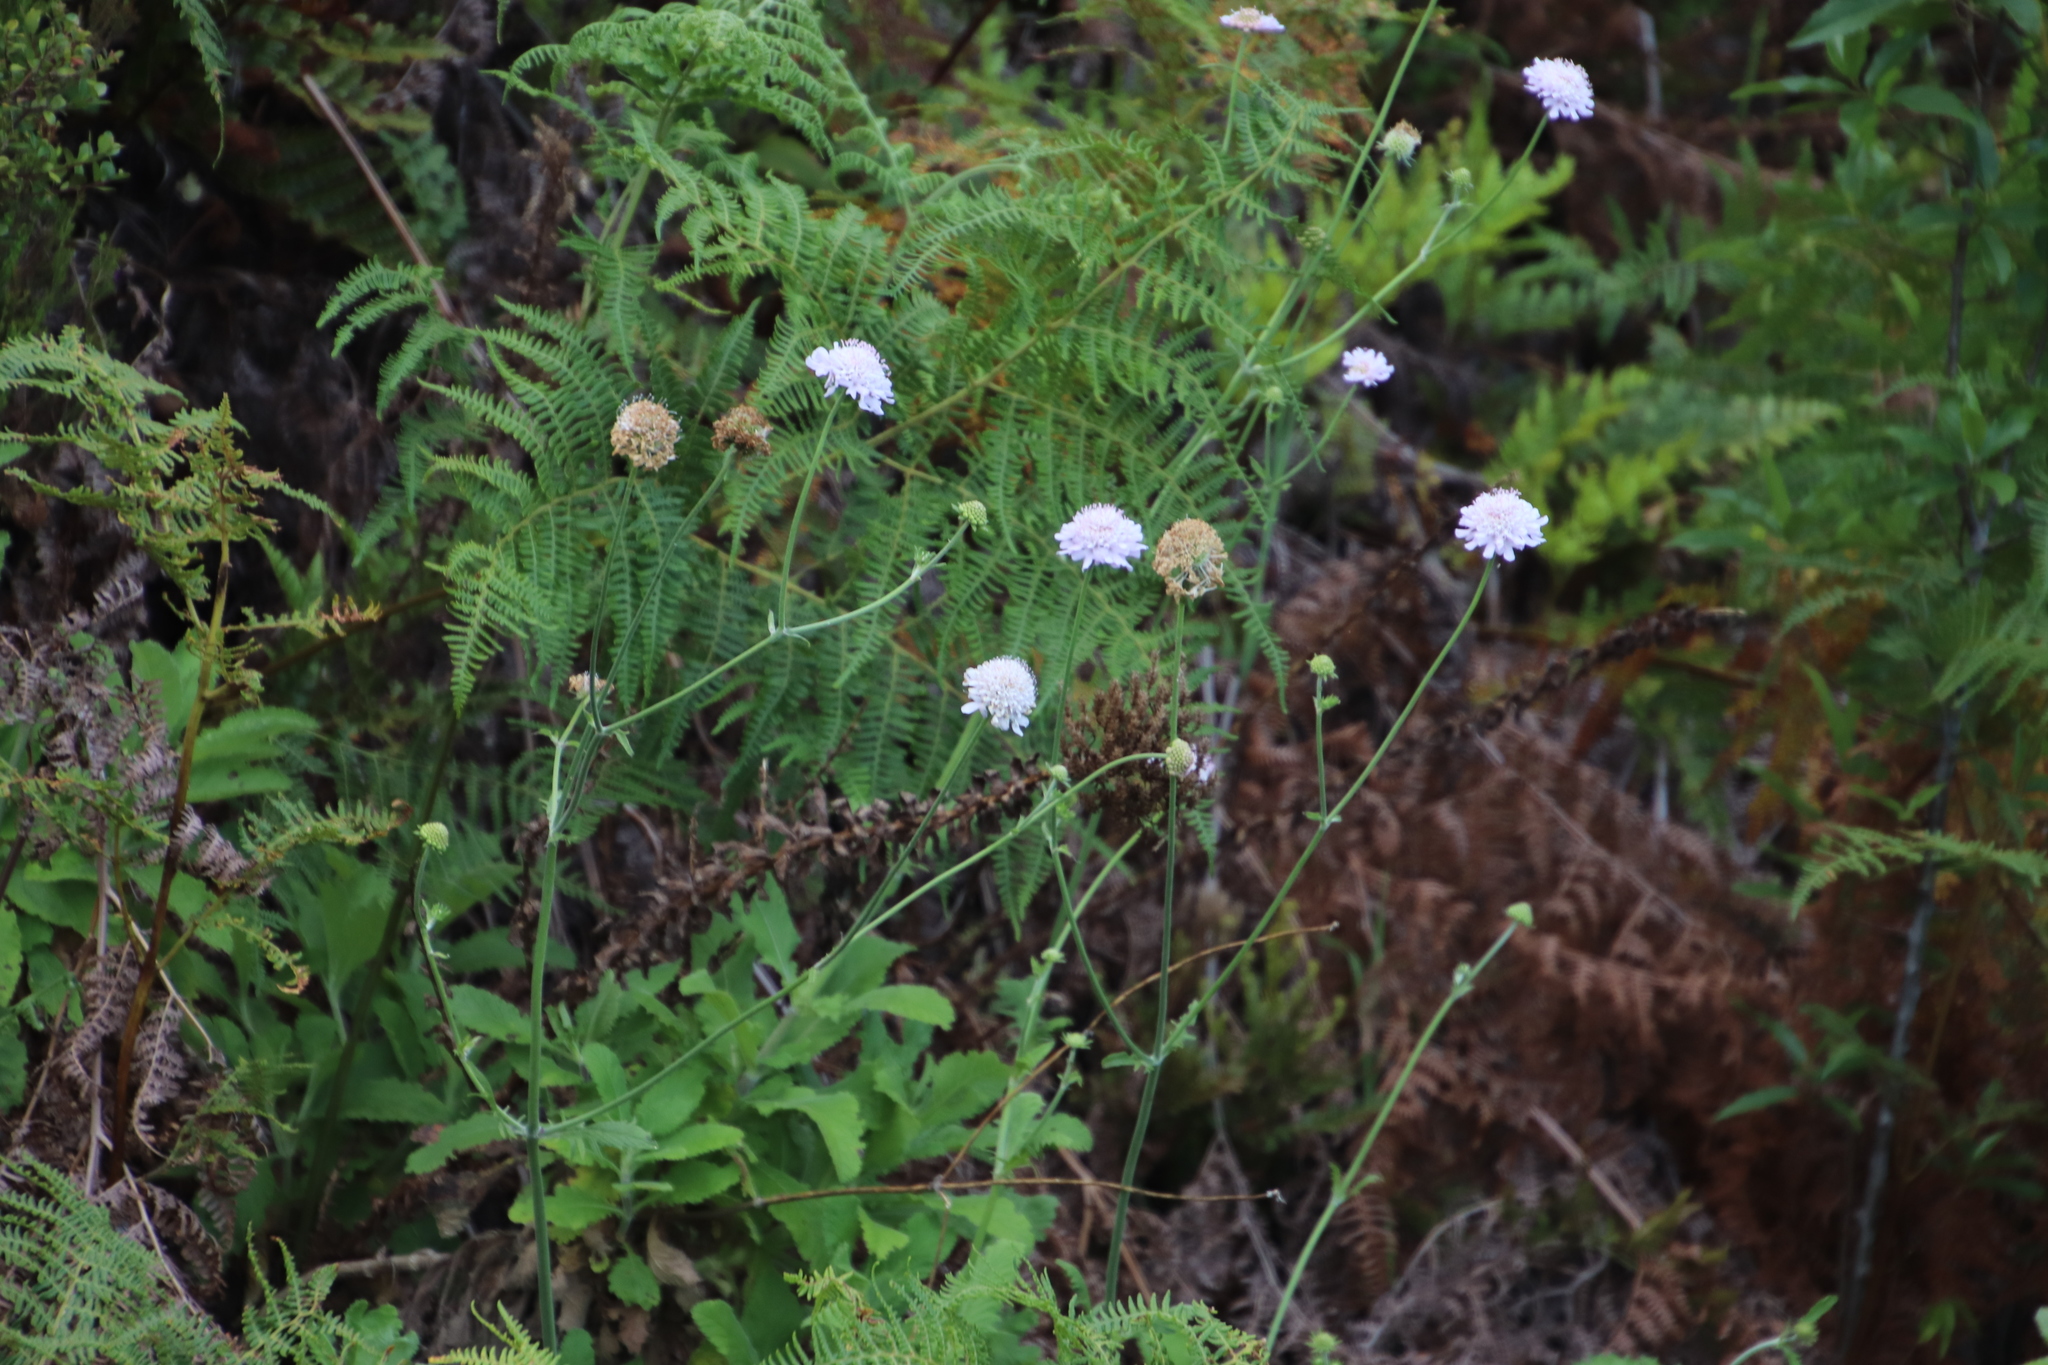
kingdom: Plantae
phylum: Tracheophyta
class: Magnoliopsida
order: Dipsacales
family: Caprifoliaceae
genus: Scabiosa
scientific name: Scabiosa africana
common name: Cape scabious
